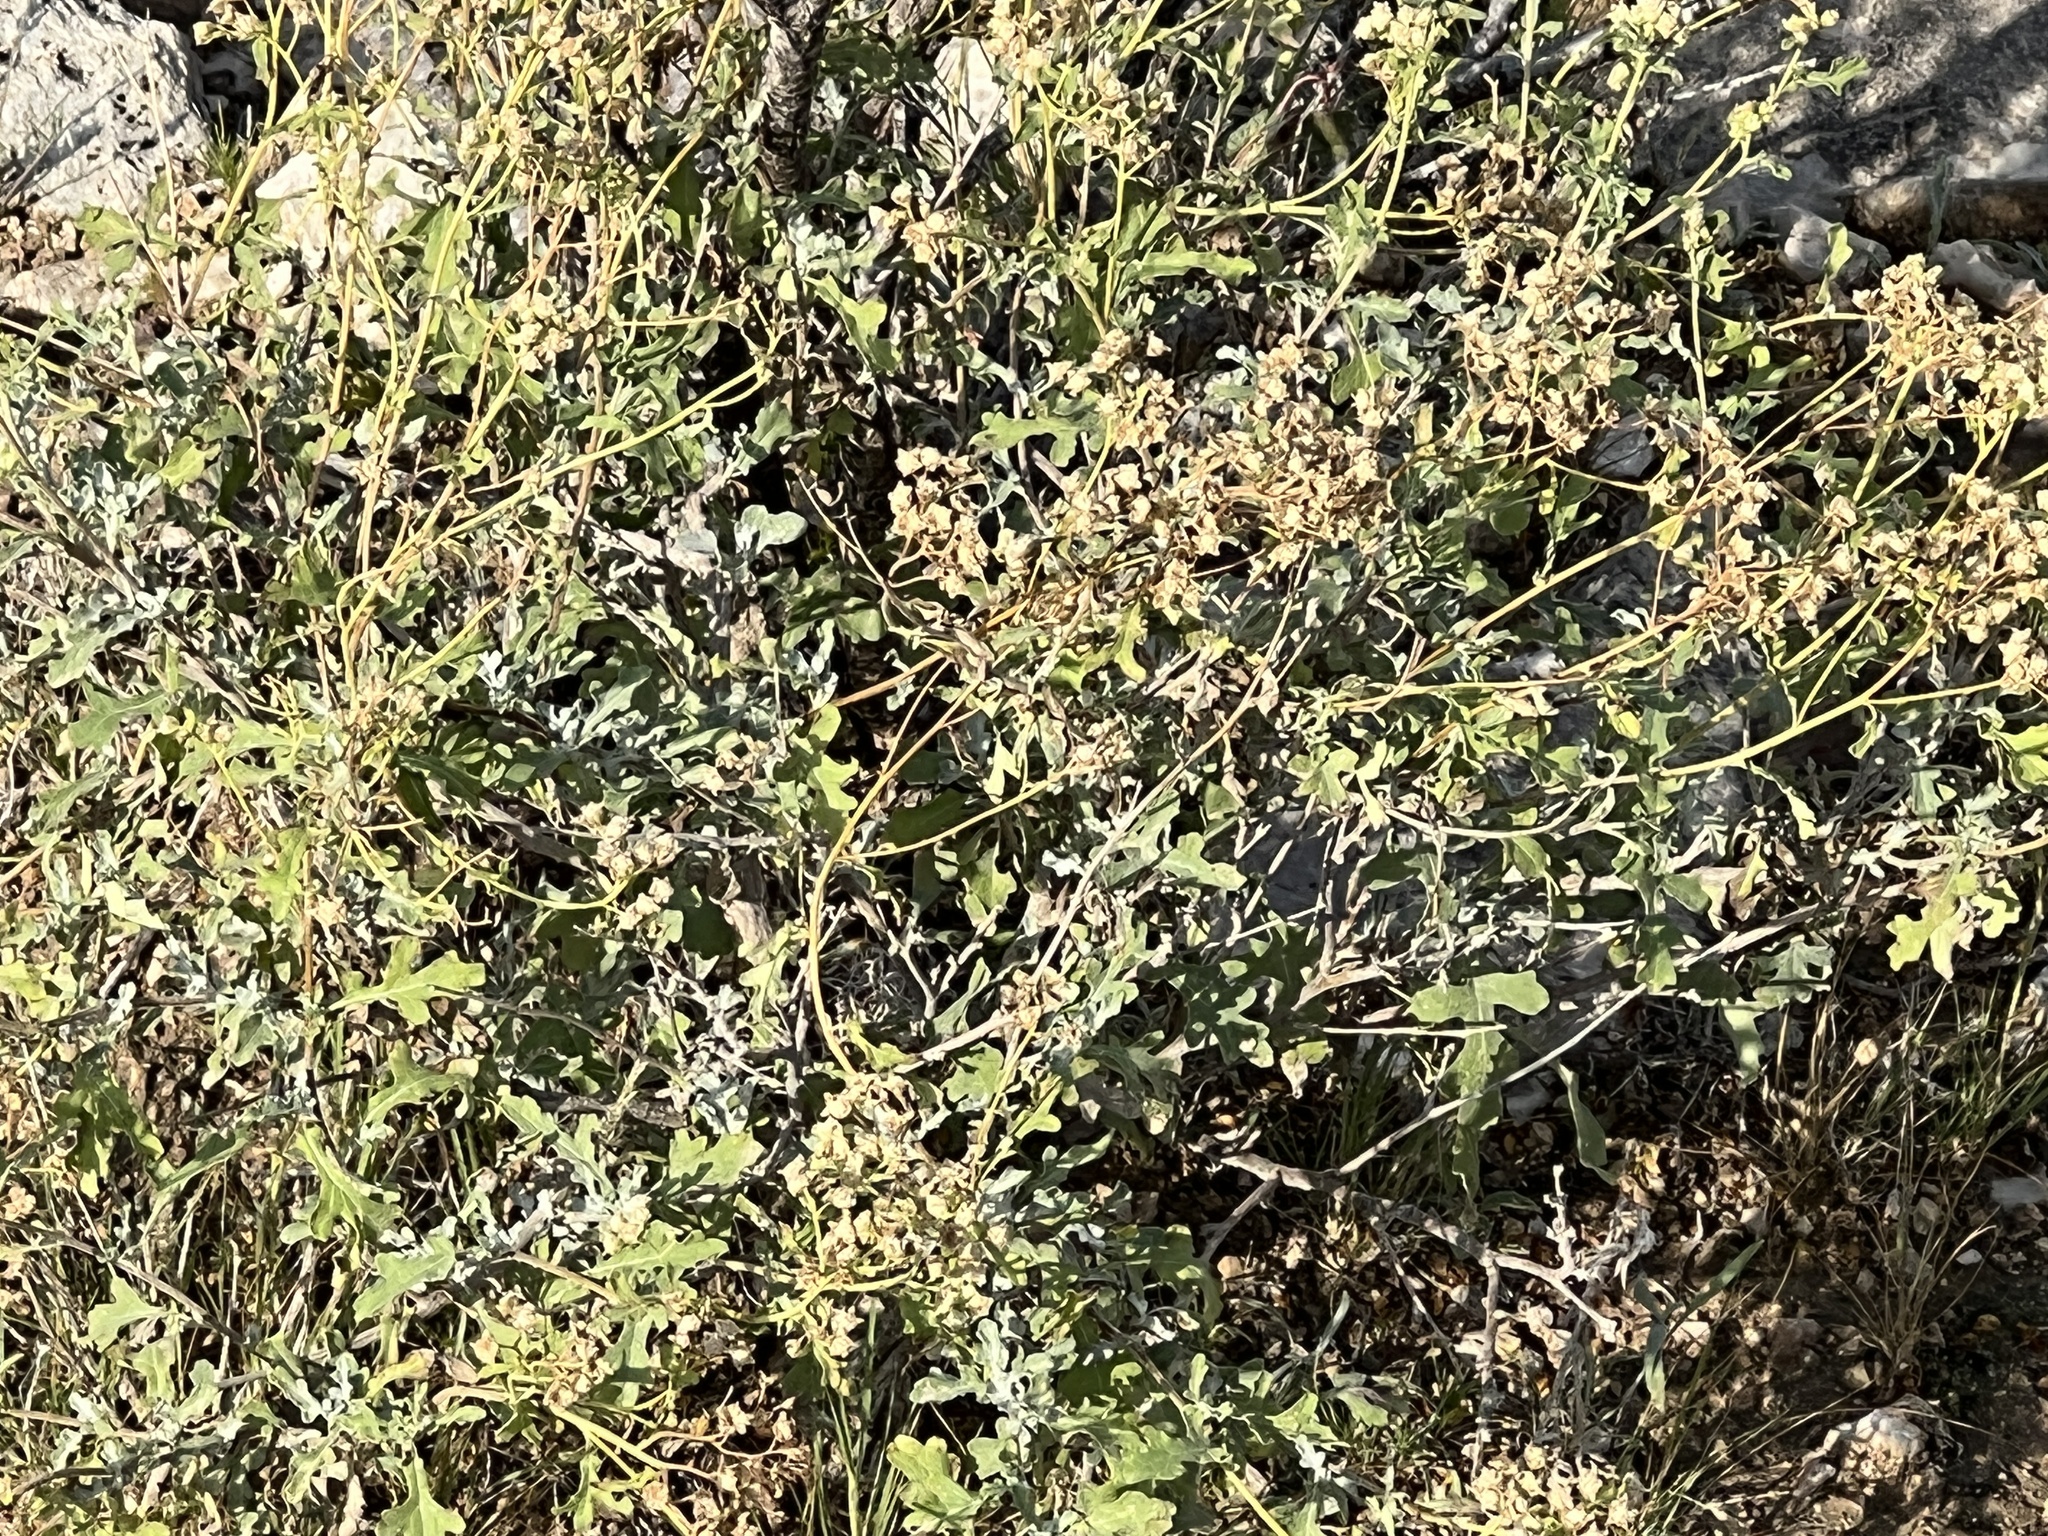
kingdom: Plantae
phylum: Tracheophyta
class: Magnoliopsida
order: Asterales
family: Asteraceae
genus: Parthenium
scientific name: Parthenium incanum
